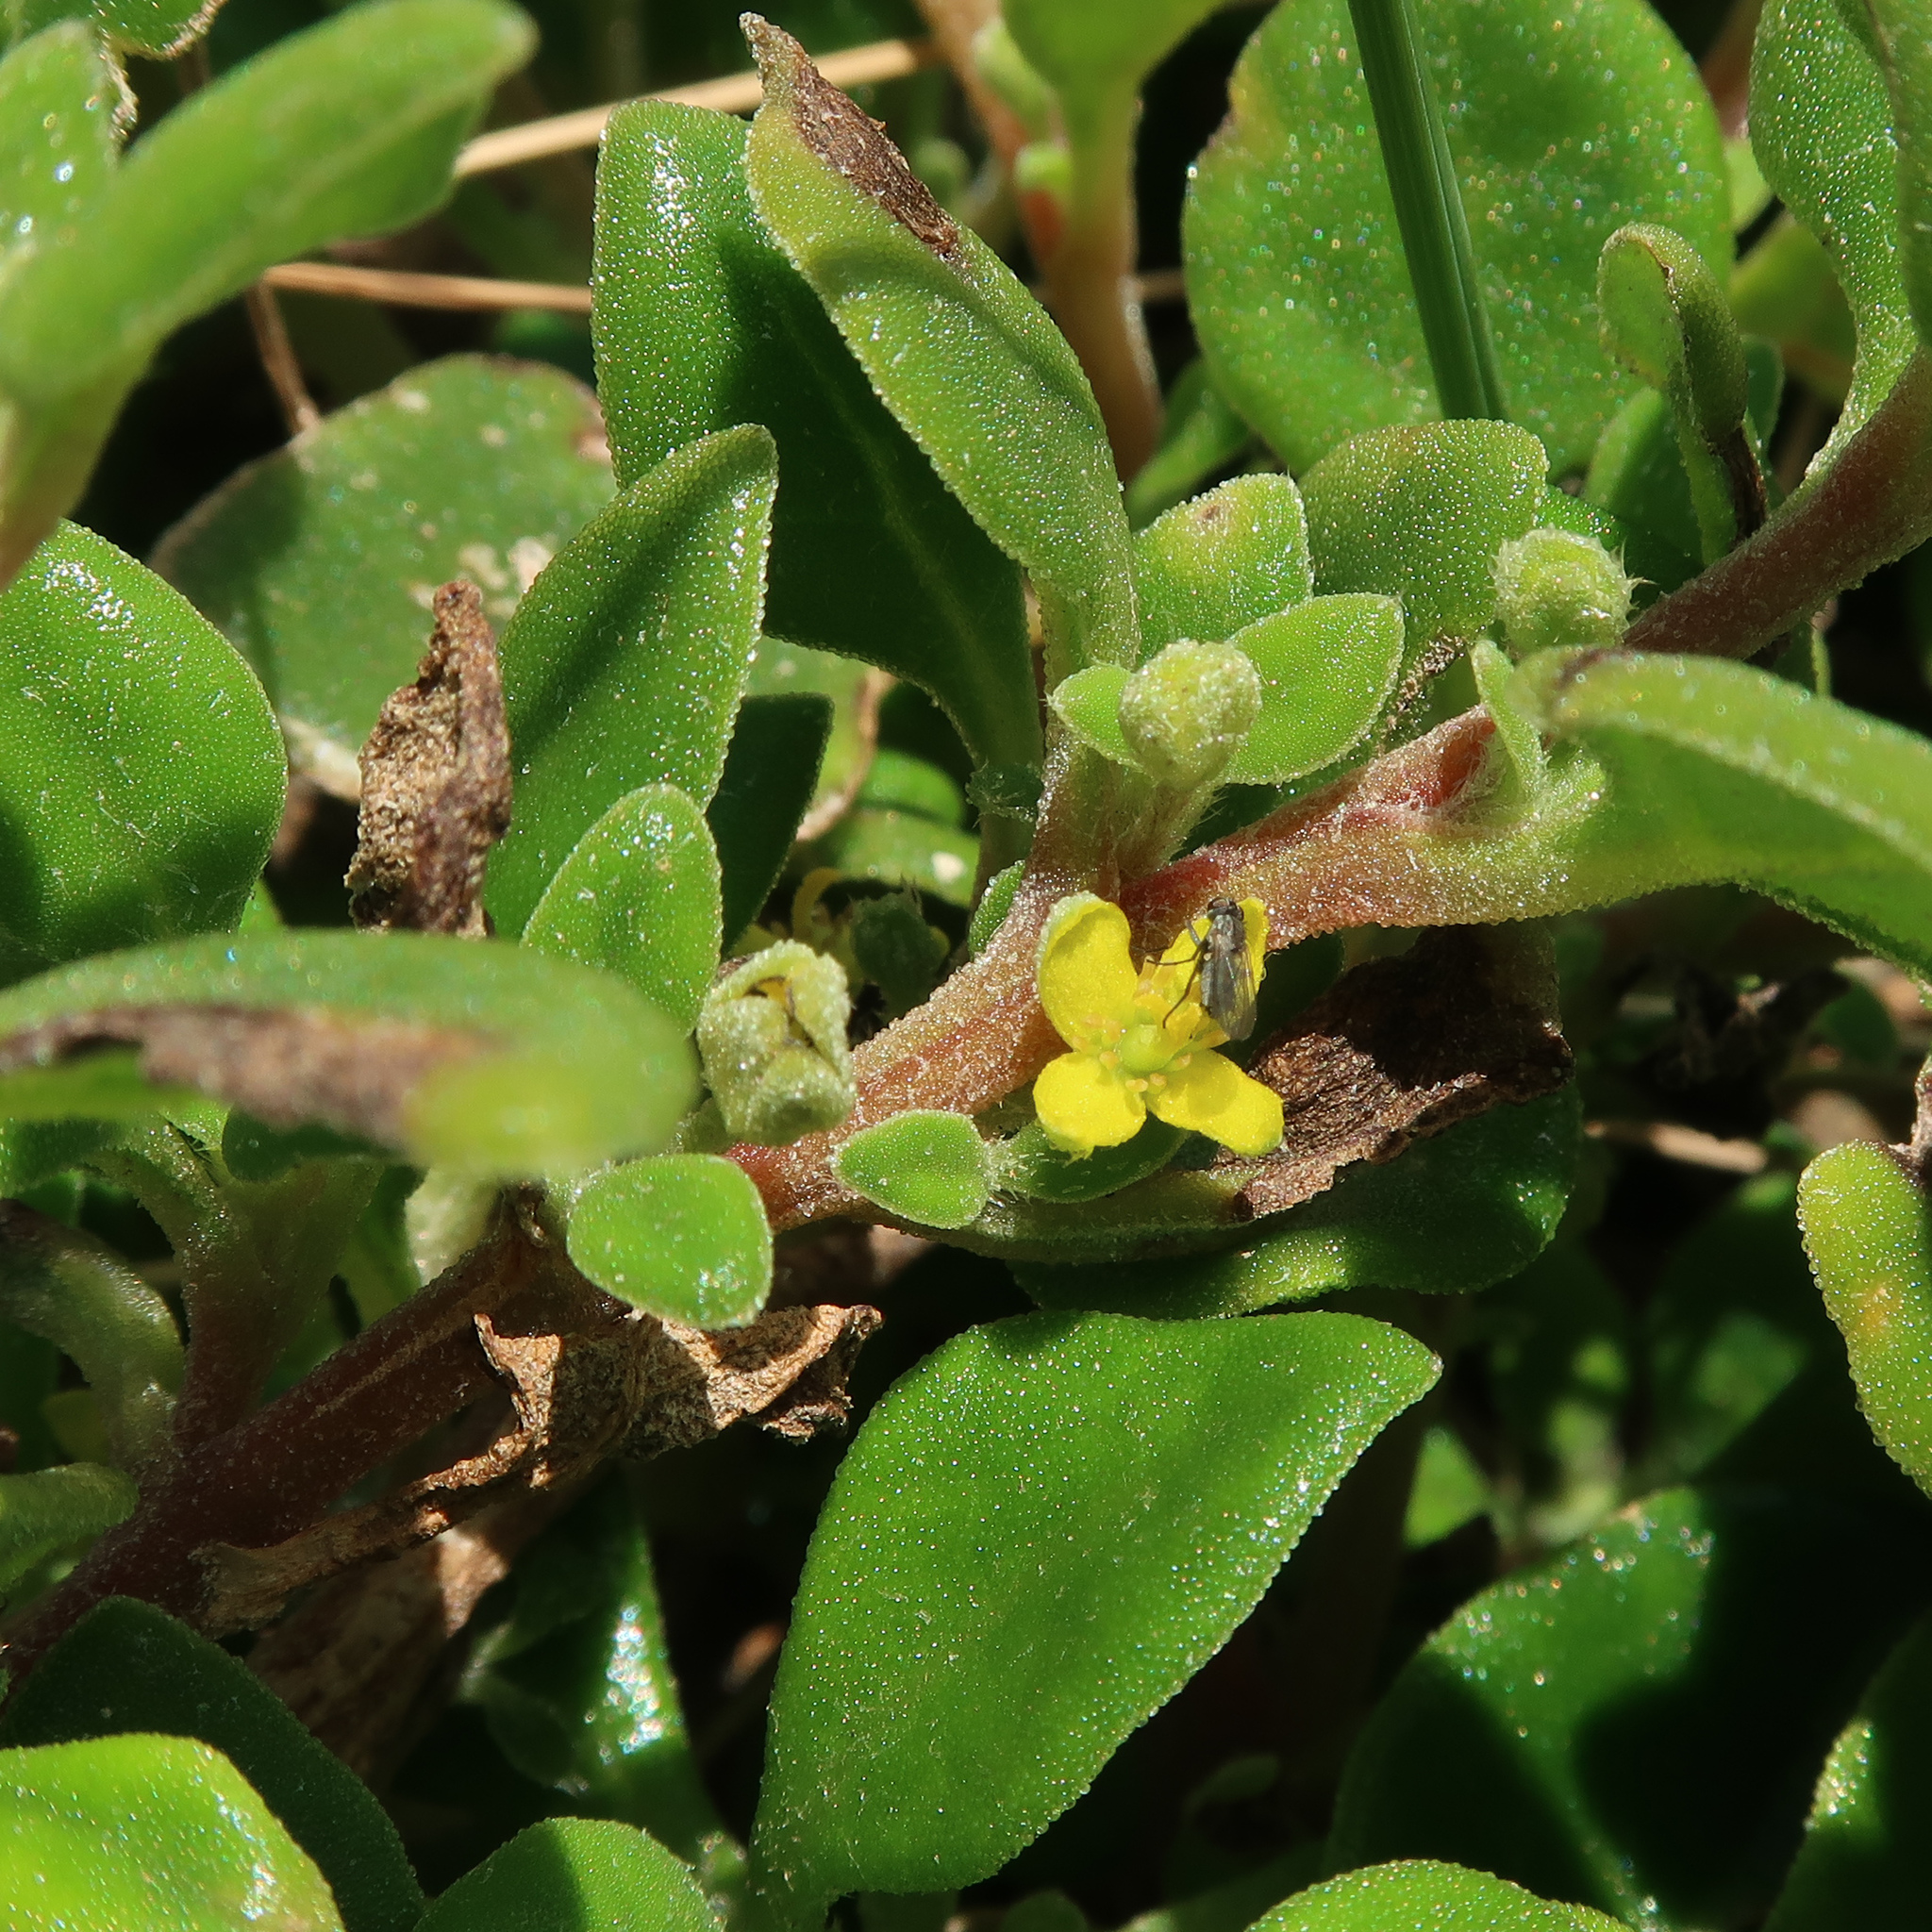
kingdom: Plantae
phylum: Tracheophyta
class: Magnoliopsida
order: Caryophyllales
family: Aizoaceae
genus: Tetragonia
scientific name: Tetragonia implexicoma
